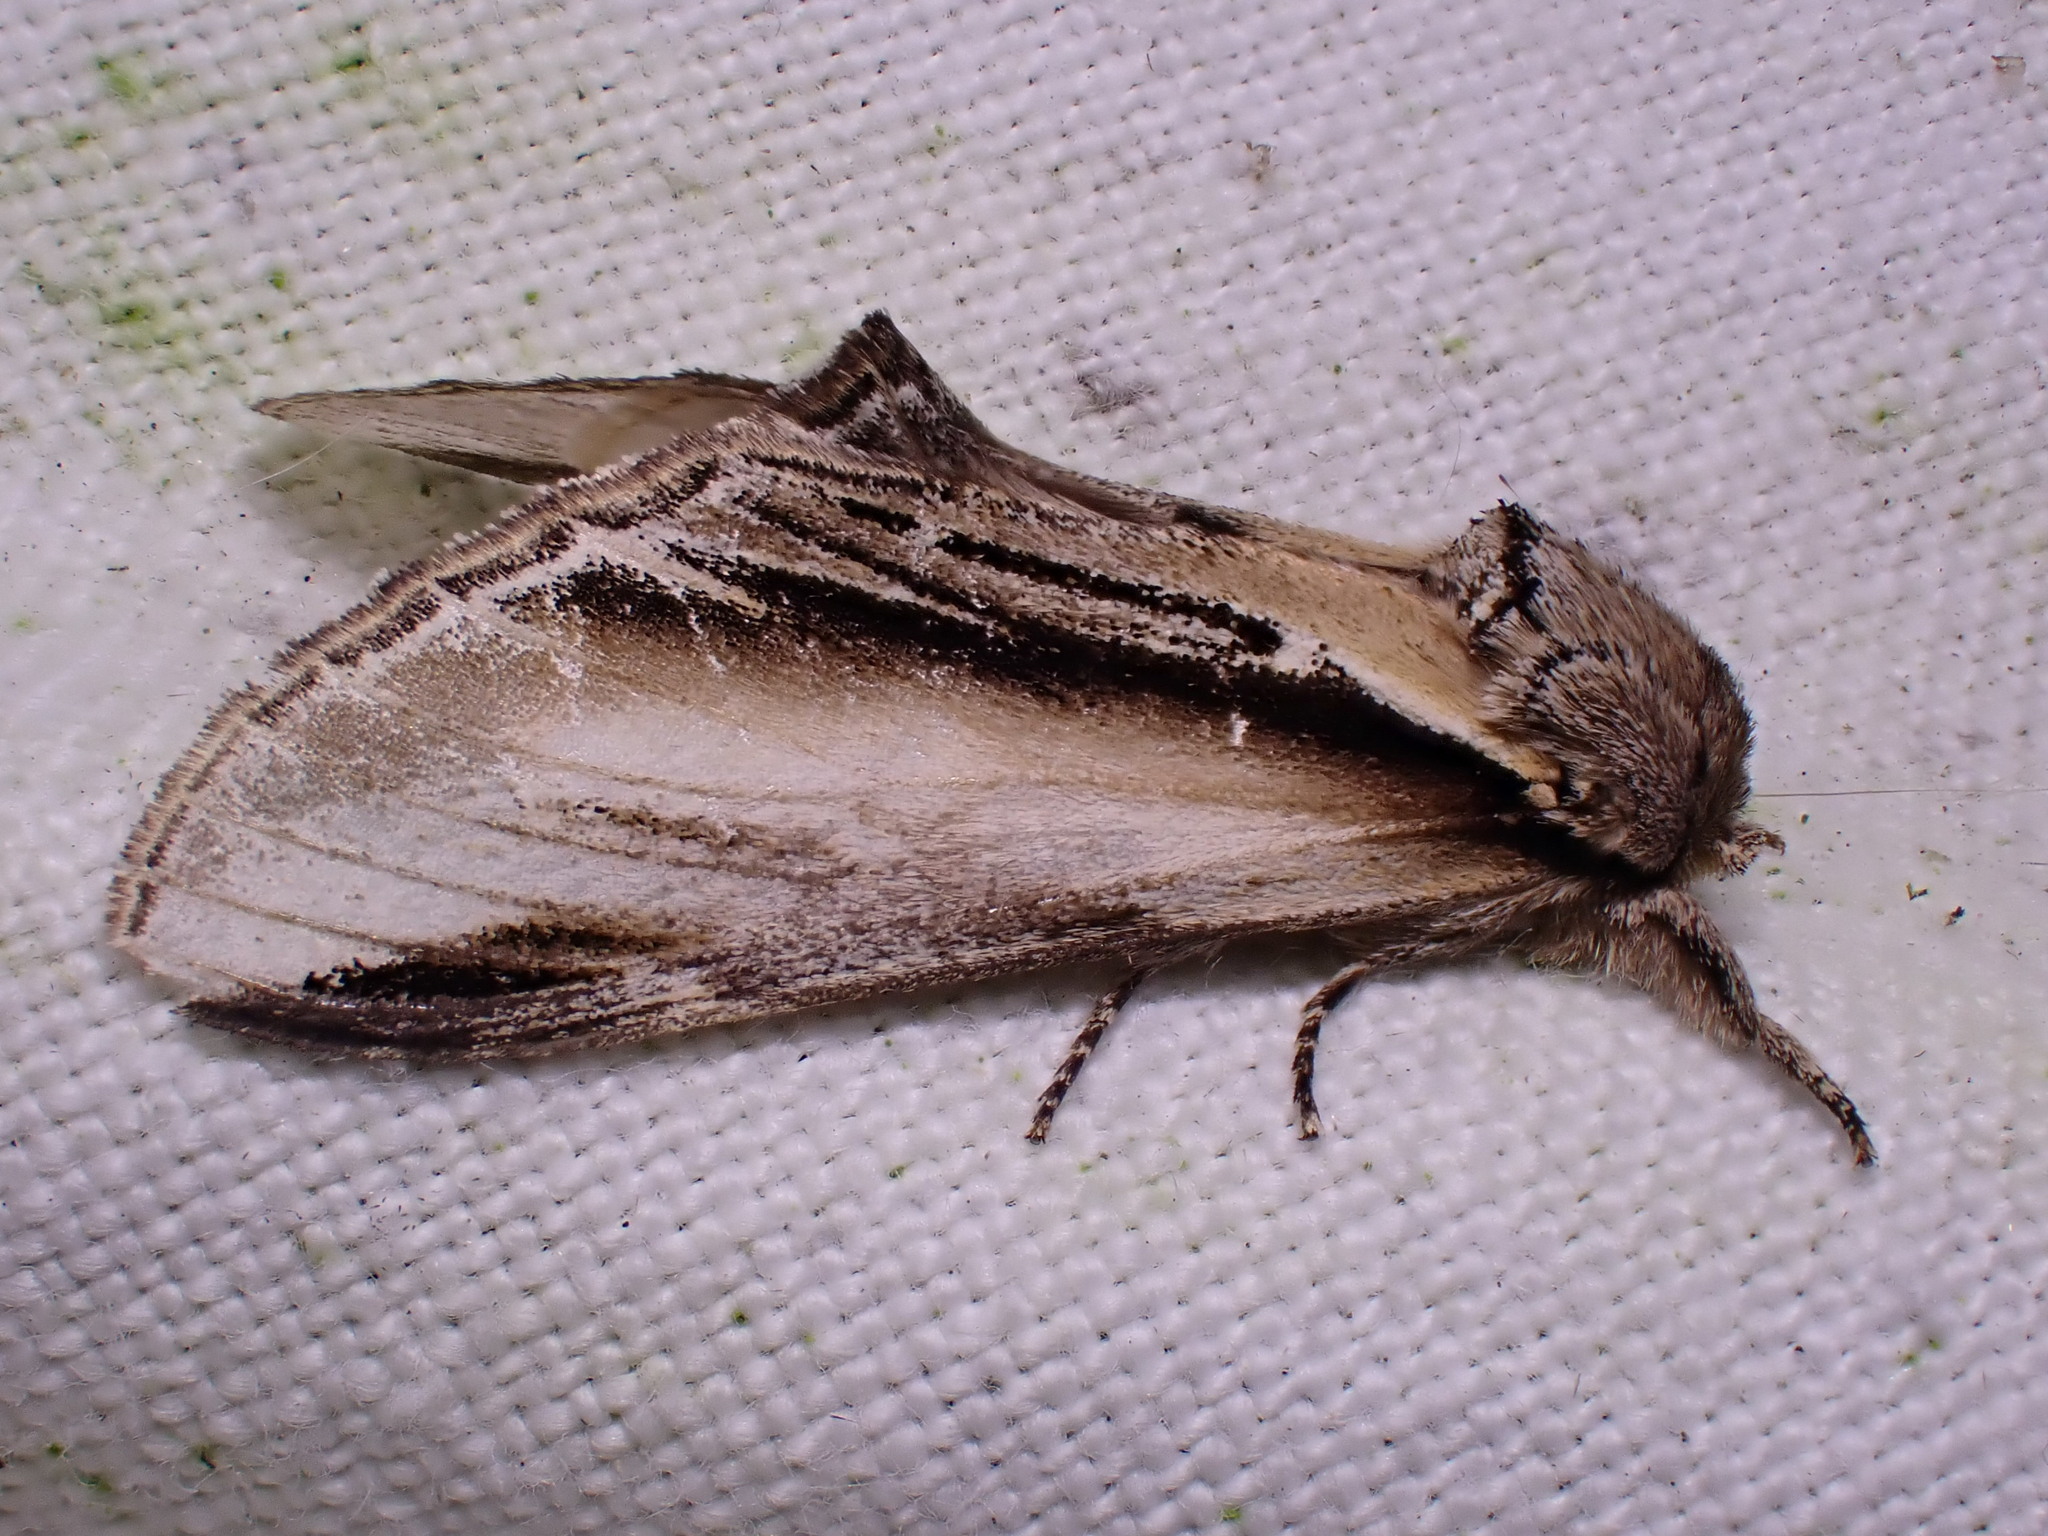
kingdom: Animalia
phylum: Arthropoda
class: Insecta
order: Lepidoptera
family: Notodontidae
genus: Pheosia
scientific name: Pheosia tremula
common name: Swallow prominent
